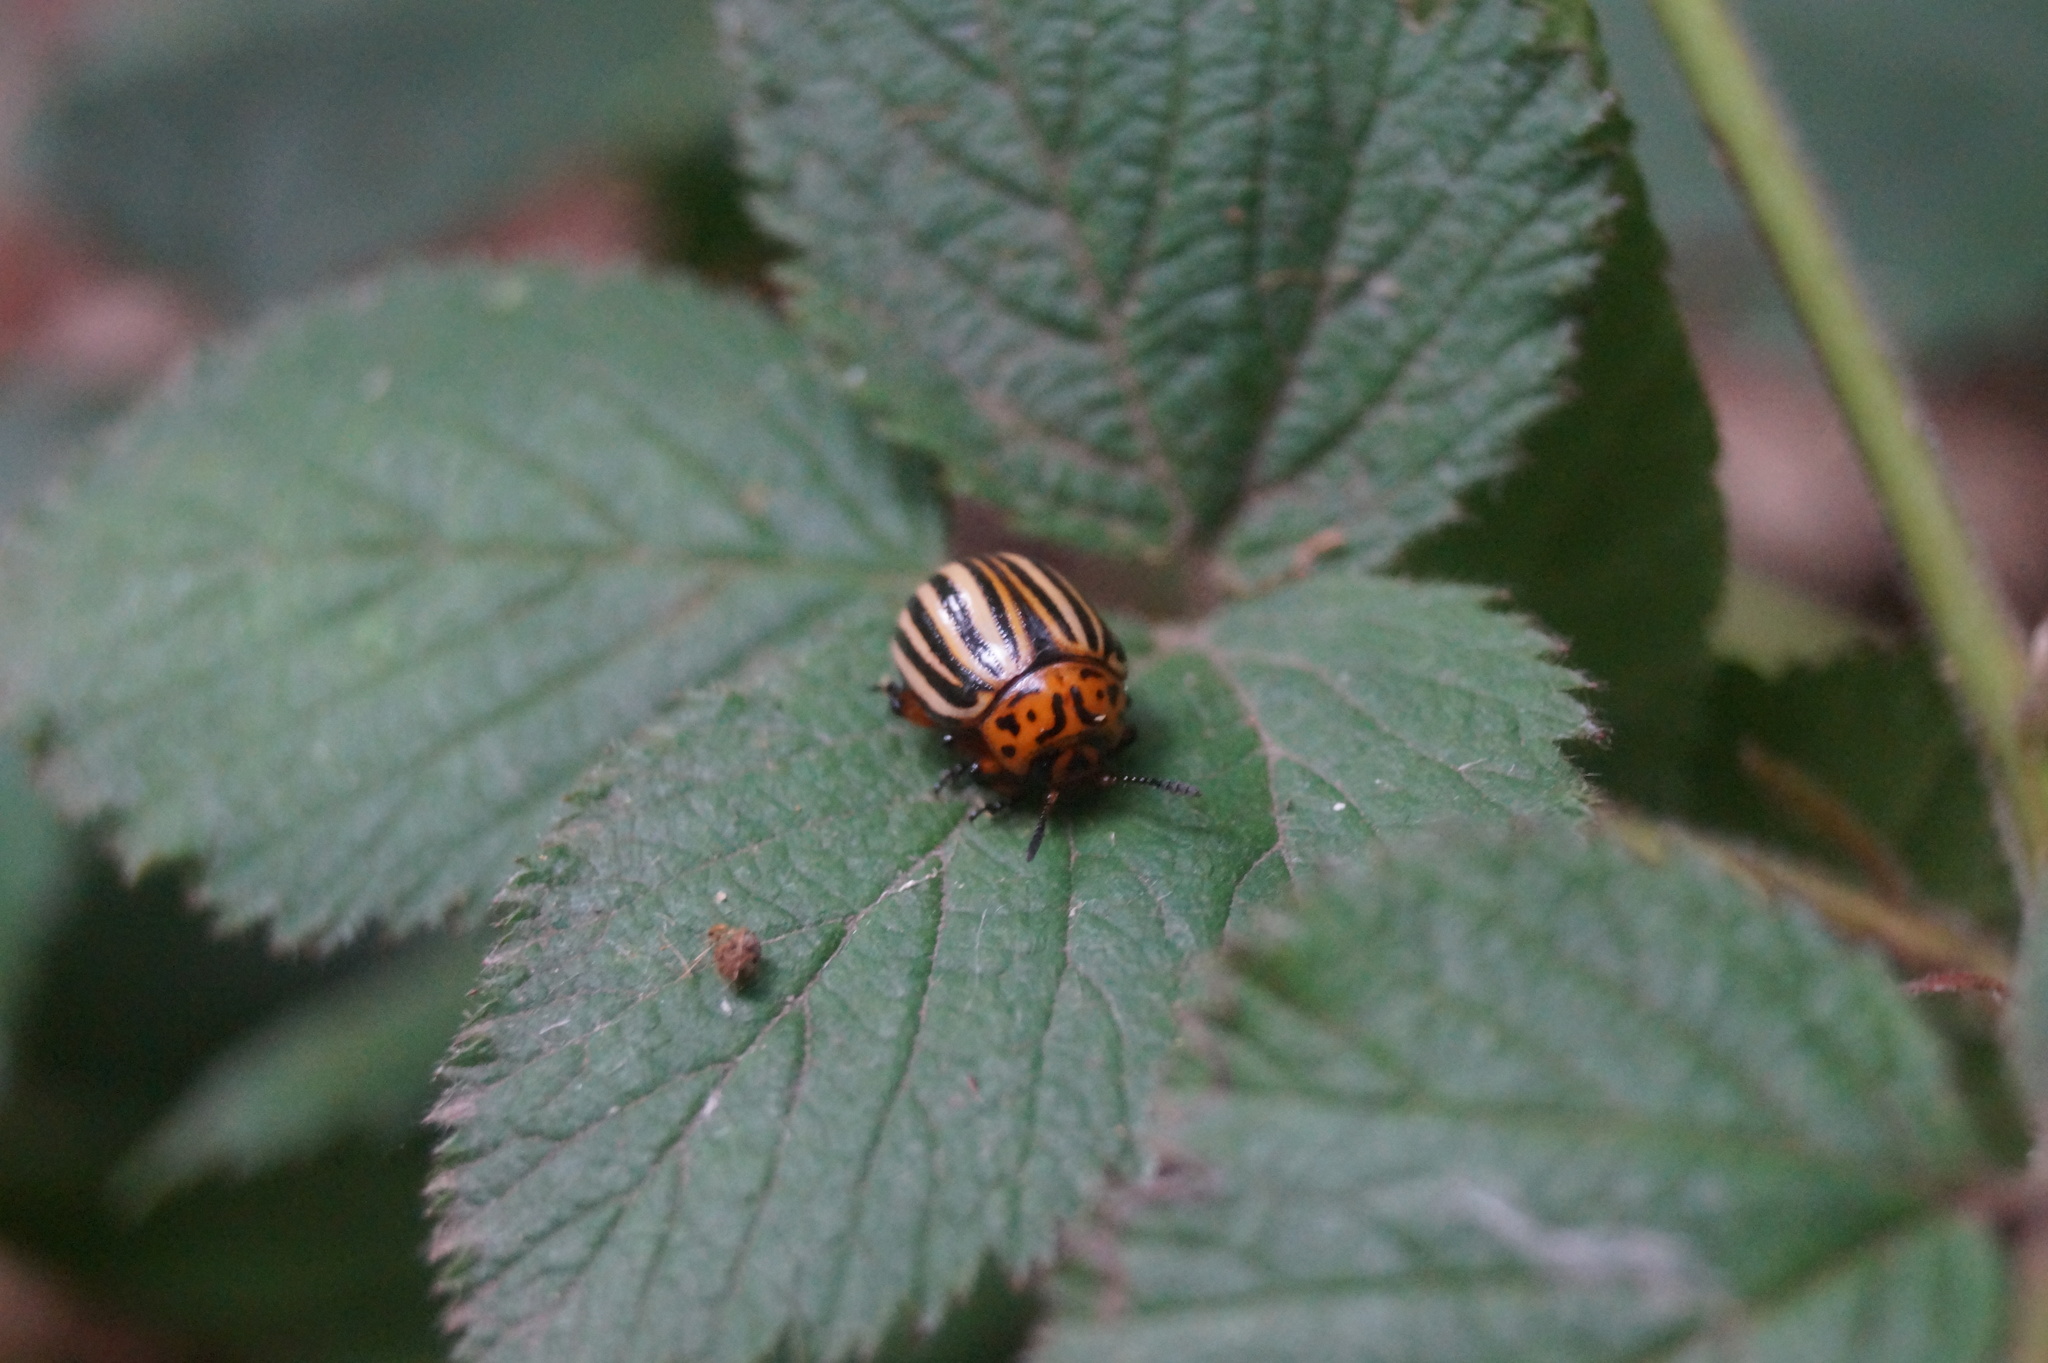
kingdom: Animalia
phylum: Arthropoda
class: Insecta
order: Coleoptera
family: Chrysomelidae
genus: Leptinotarsa
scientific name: Leptinotarsa decemlineata
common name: Colorado potato beetle
